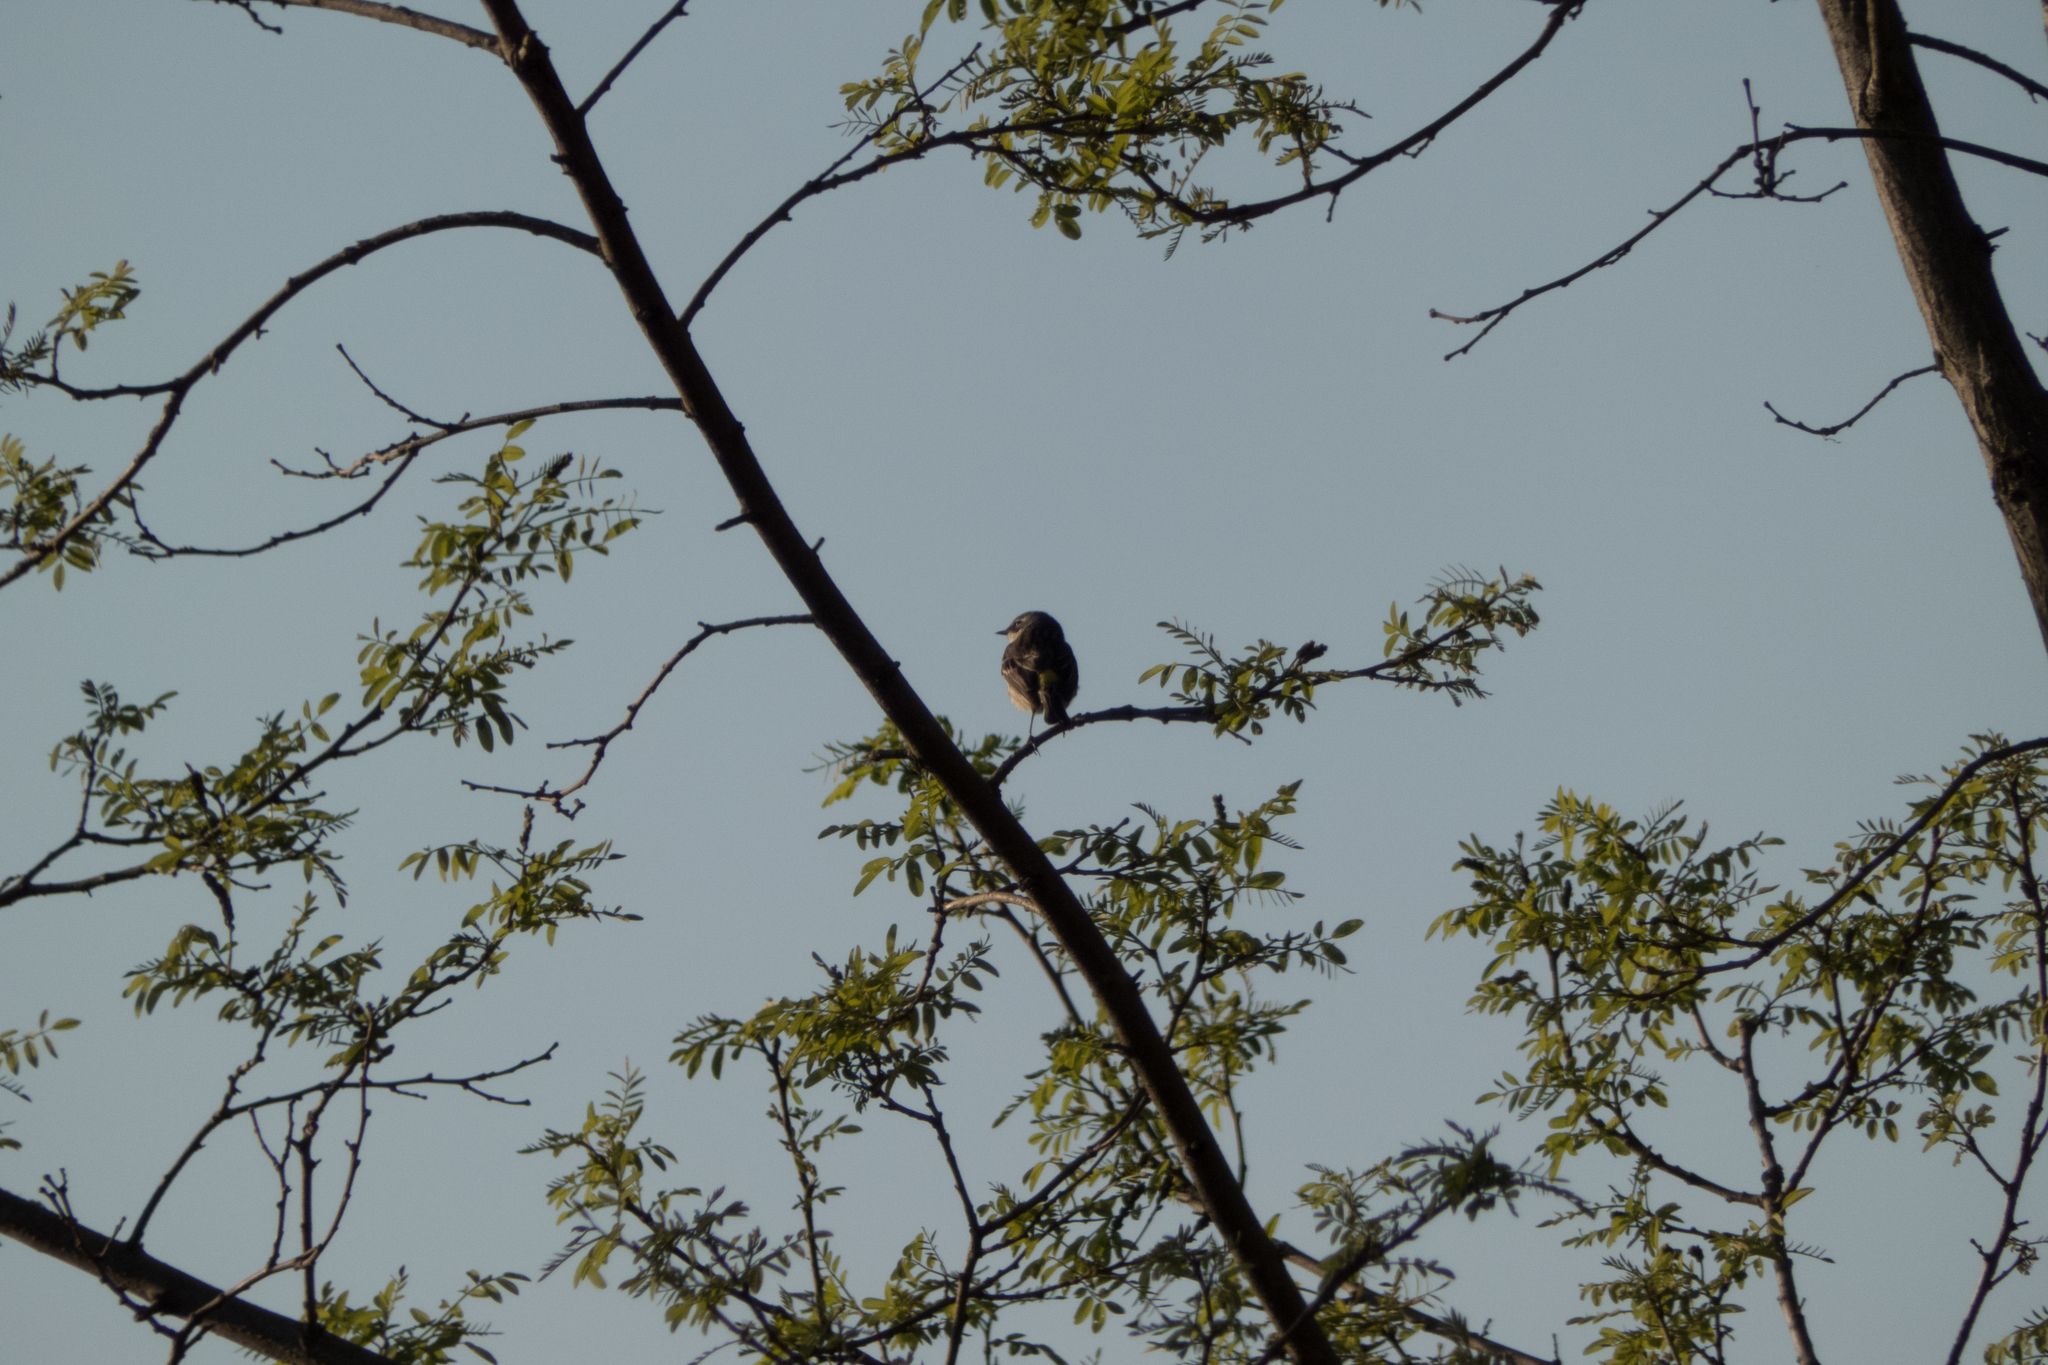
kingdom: Animalia
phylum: Chordata
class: Aves
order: Passeriformes
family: Parulidae
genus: Setophaga
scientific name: Setophaga coronata
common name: Myrtle warbler
